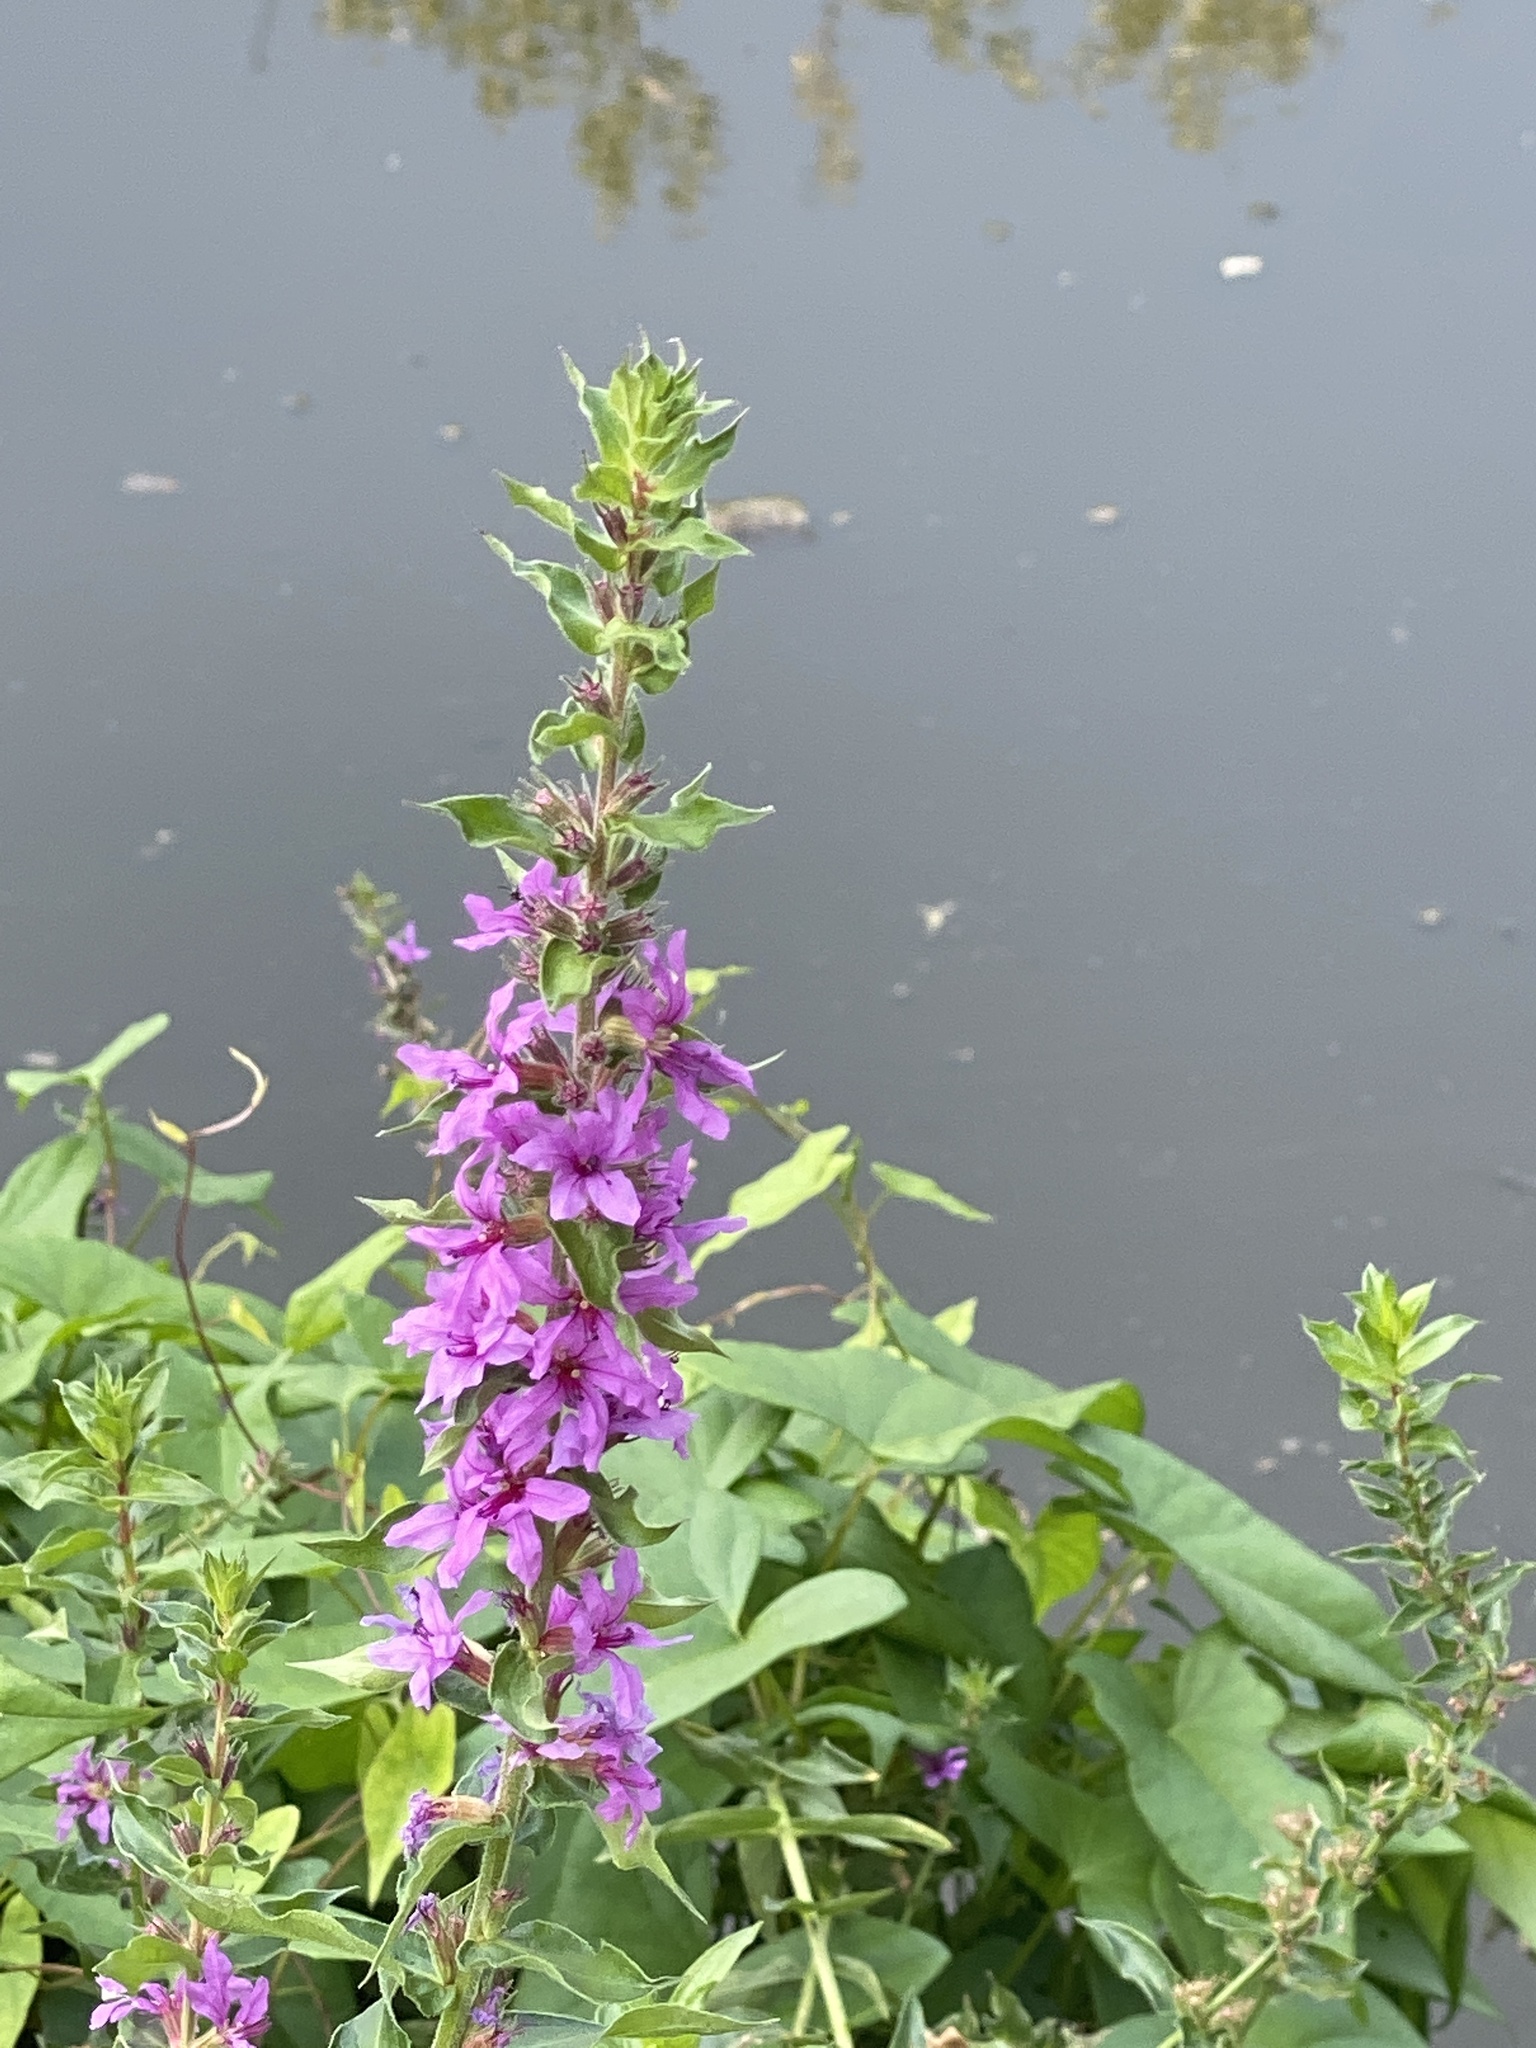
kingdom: Plantae
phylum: Tracheophyta
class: Magnoliopsida
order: Myrtales
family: Lythraceae
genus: Lythrum
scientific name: Lythrum salicaria
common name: Purple loosestrife
